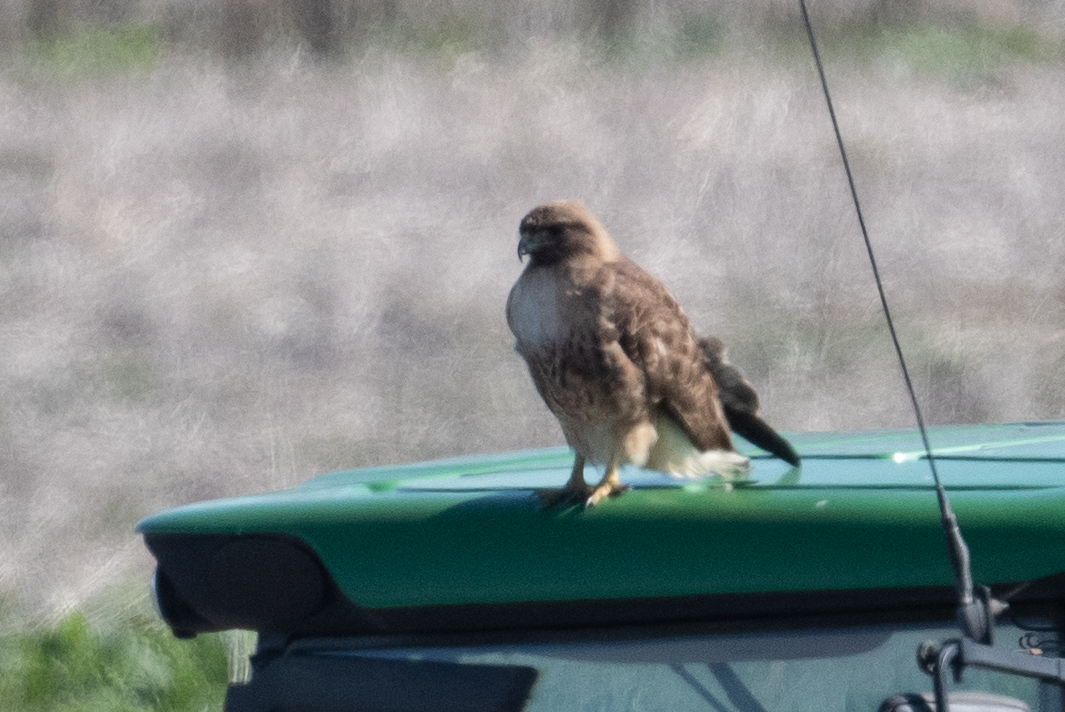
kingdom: Animalia
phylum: Chordata
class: Aves
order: Accipitriformes
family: Accipitridae
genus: Buteo
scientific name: Buteo jamaicensis
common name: Red-tailed hawk
